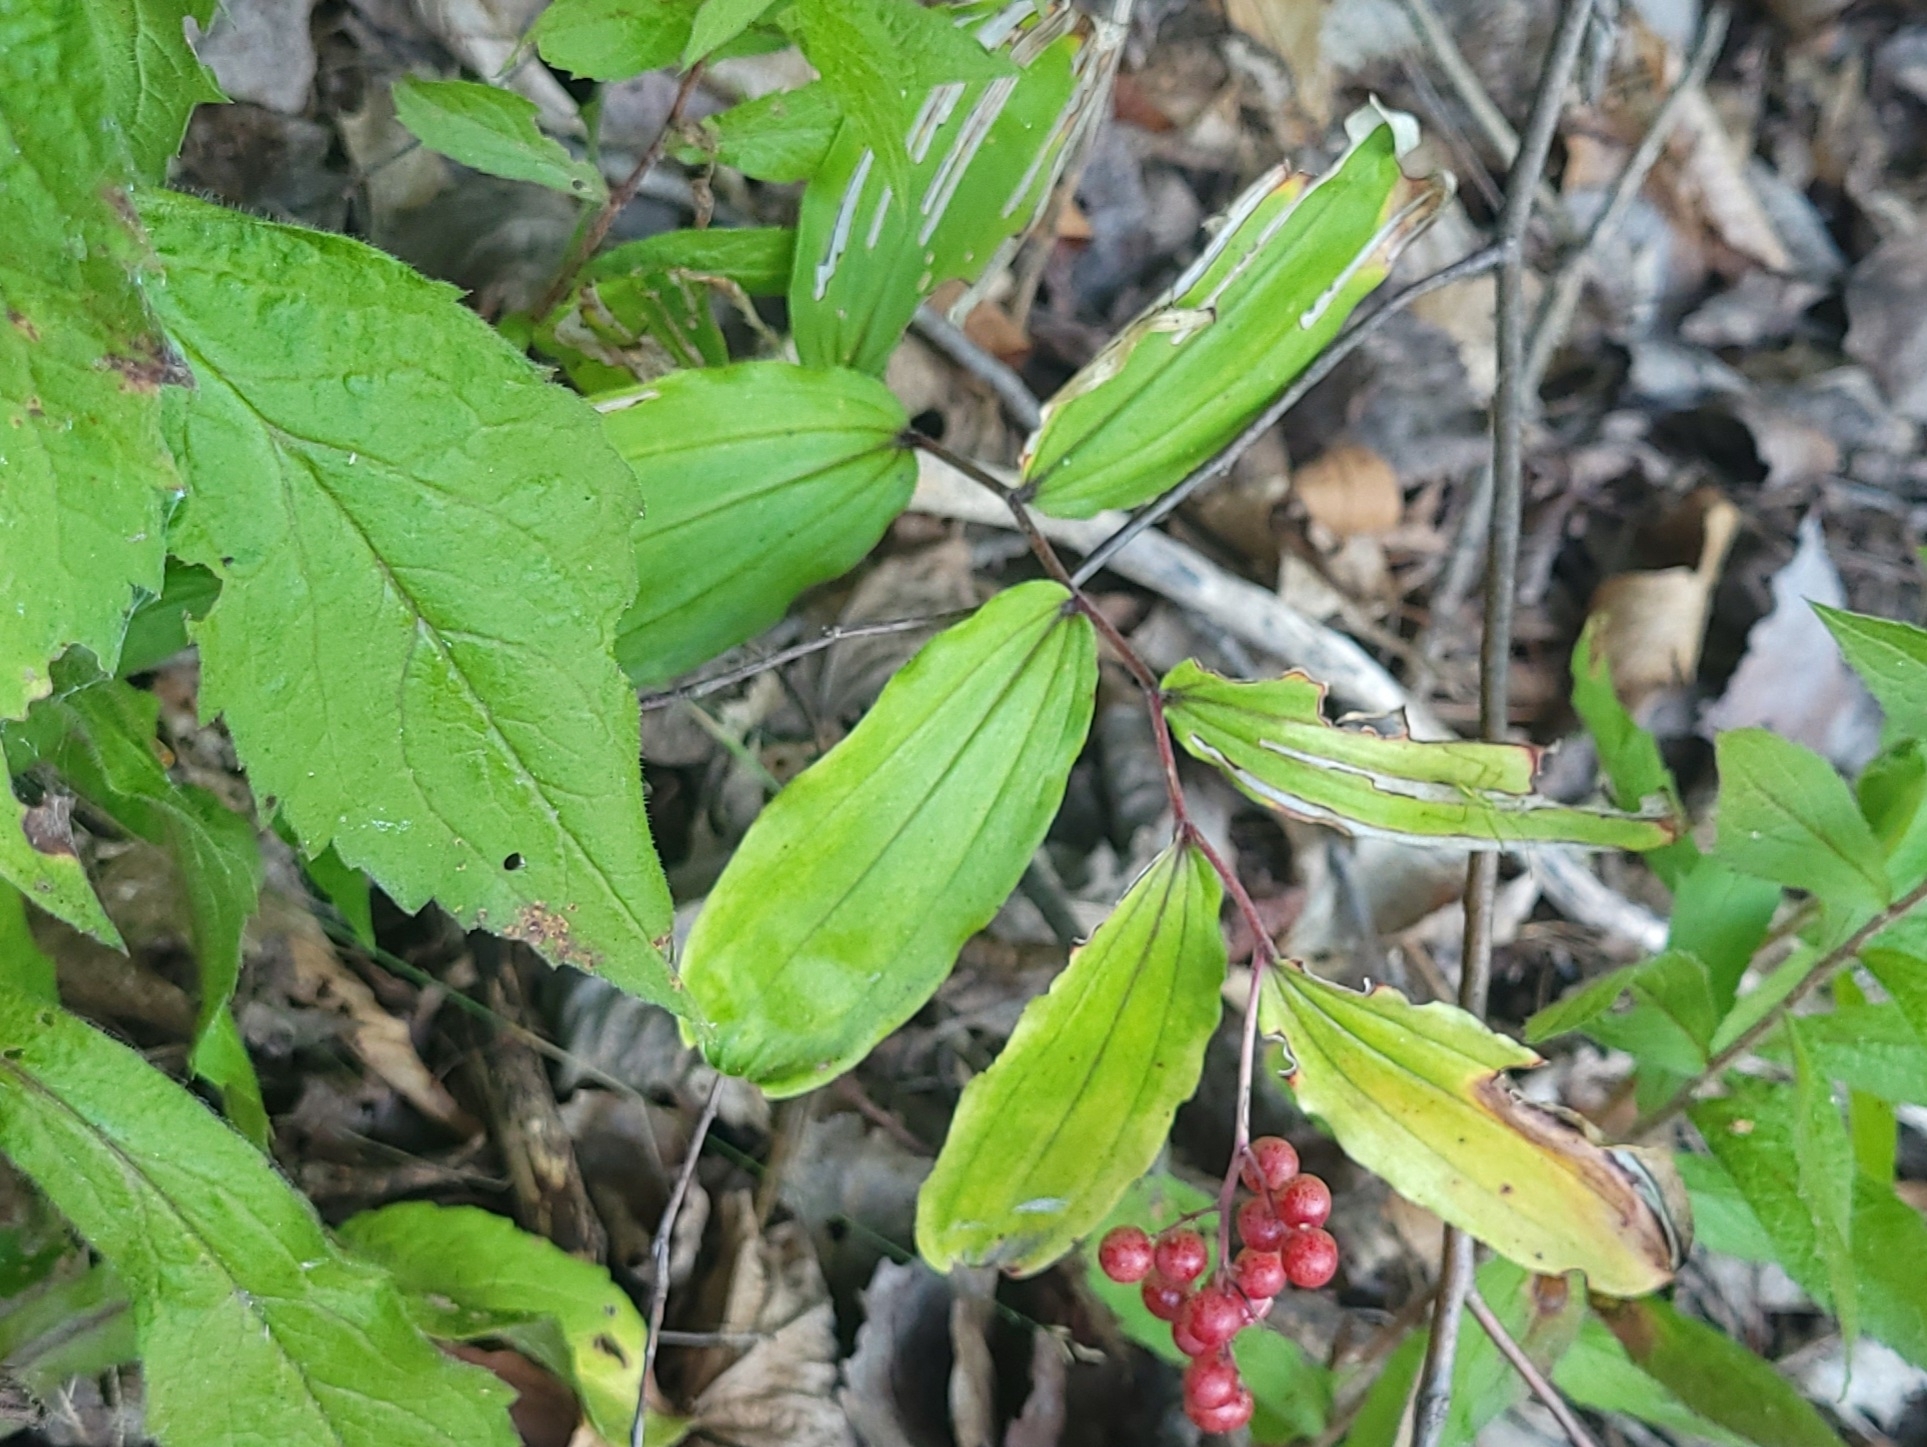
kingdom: Plantae
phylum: Tracheophyta
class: Liliopsida
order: Asparagales
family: Asparagaceae
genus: Maianthemum
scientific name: Maianthemum racemosum
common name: False spikenard
